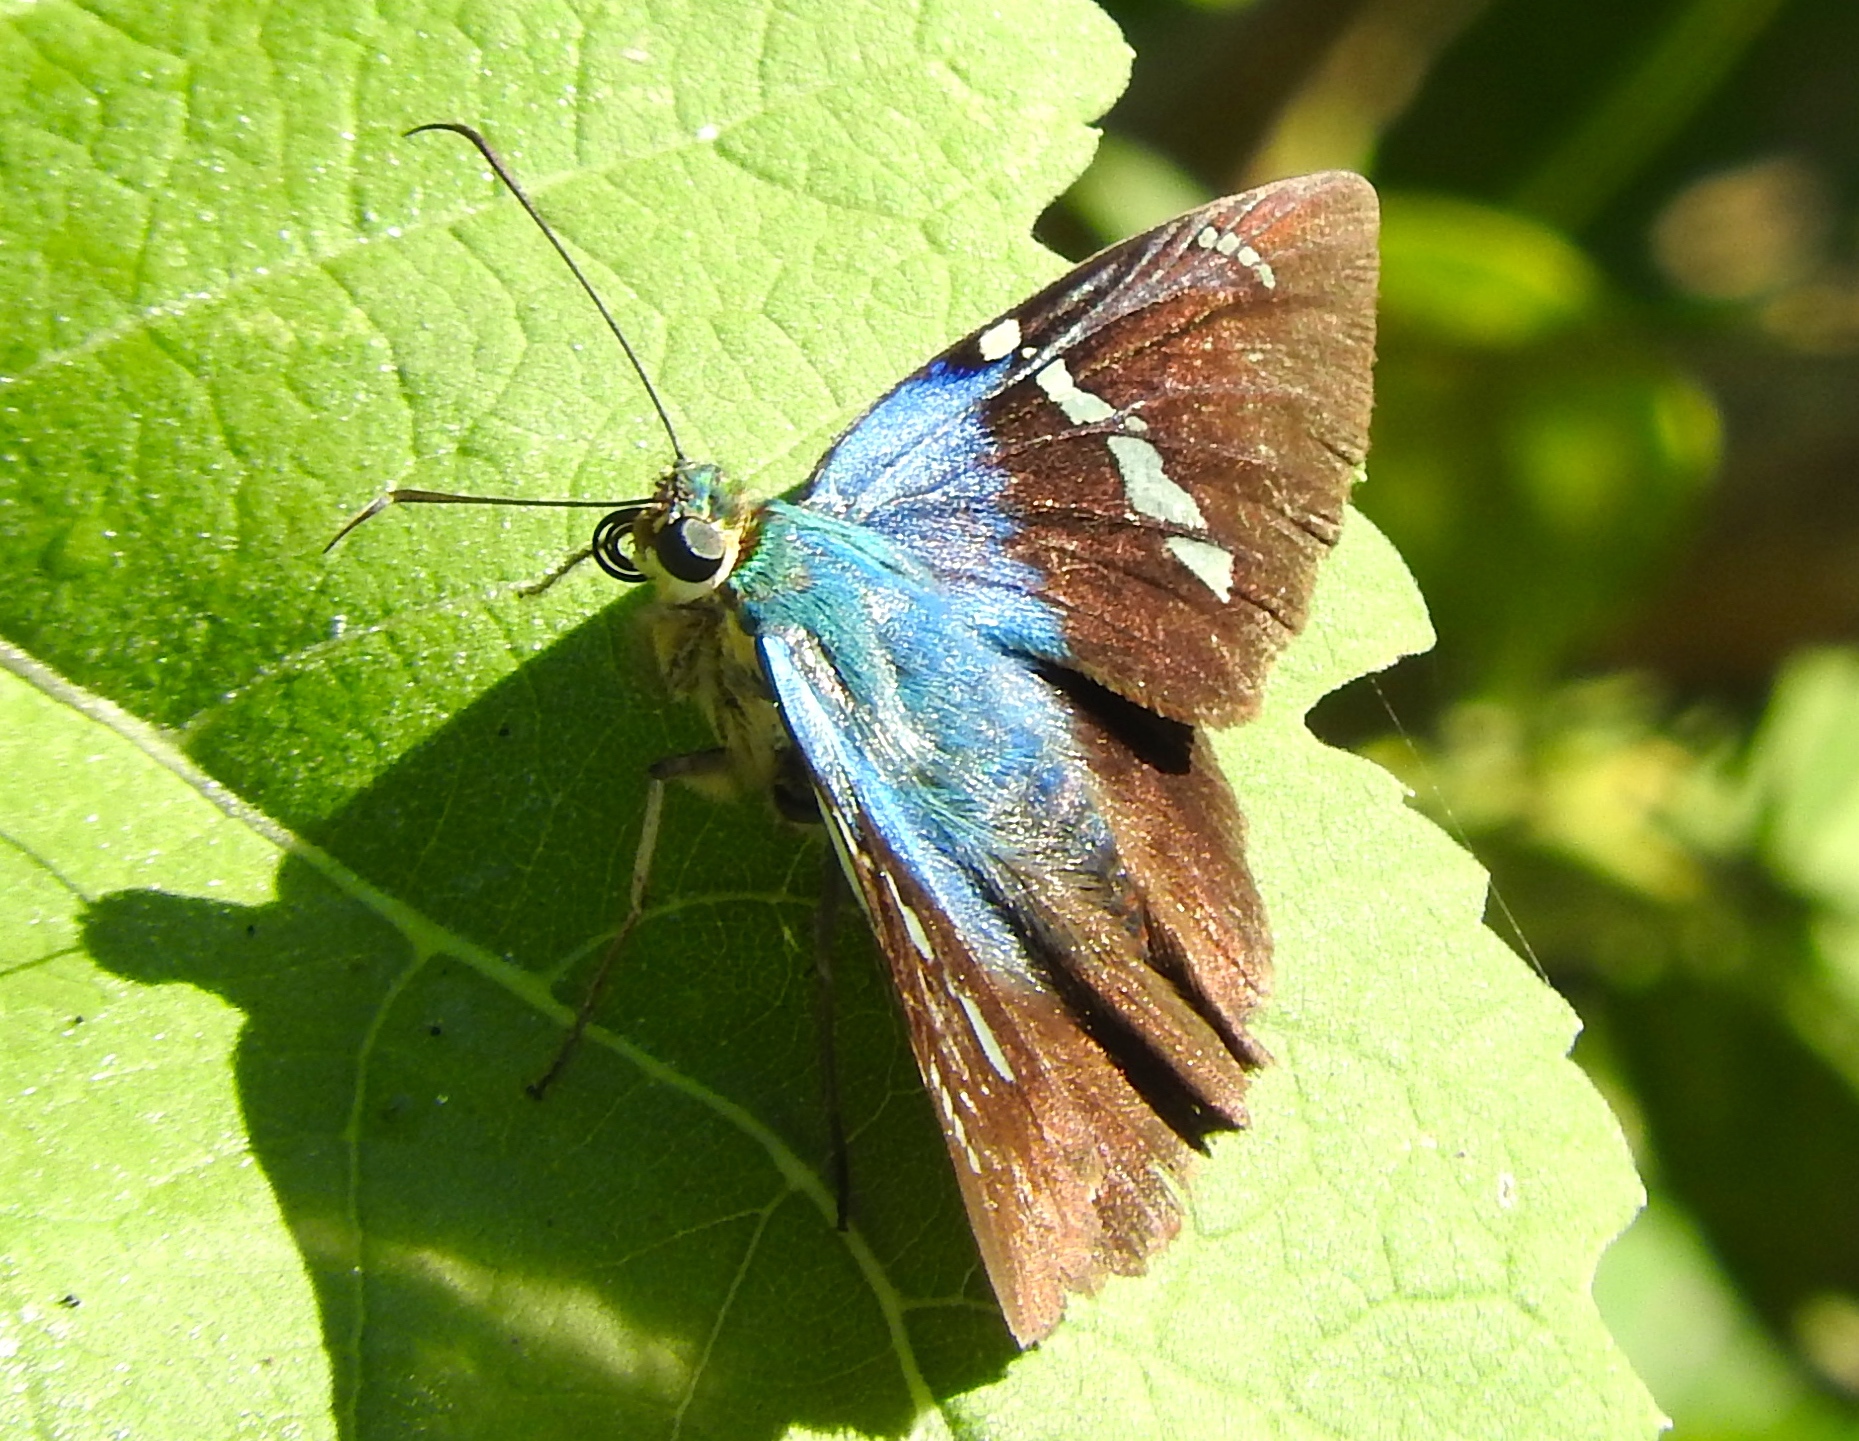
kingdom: Animalia
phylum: Arthropoda
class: Insecta
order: Lepidoptera
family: Hesperiidae
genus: Astraptes
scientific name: Astraptes fulgerator
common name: Two-barred flasher
